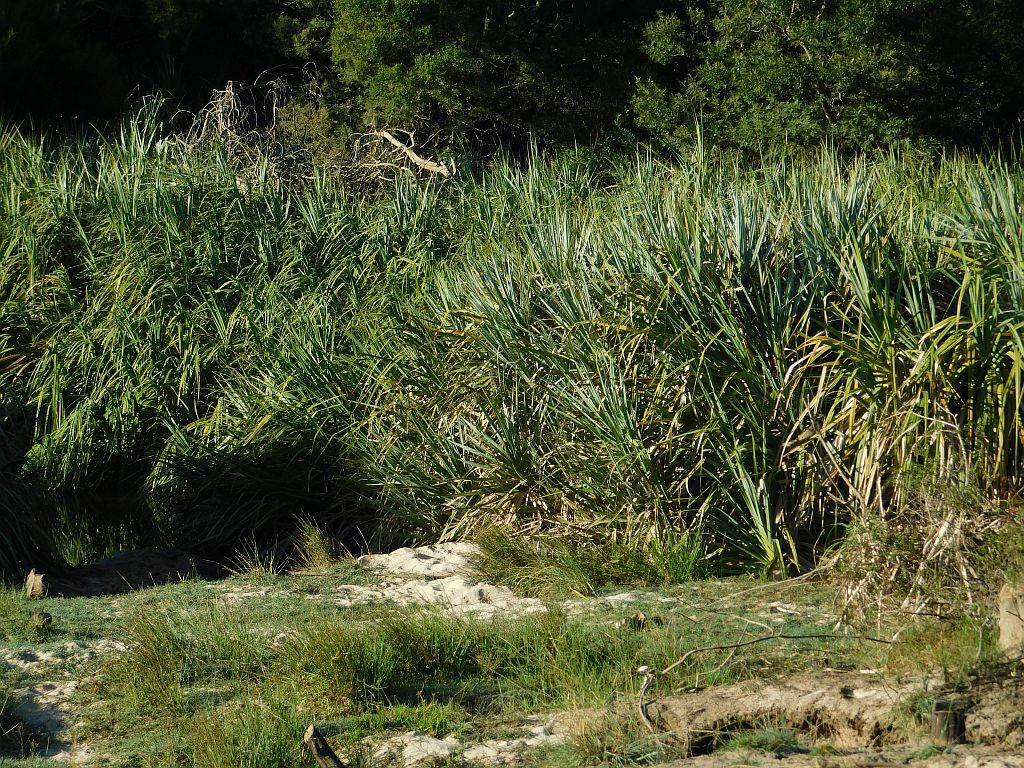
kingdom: Plantae
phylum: Tracheophyta
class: Liliopsida
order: Poales
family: Thurniaceae
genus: Prionium
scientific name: Prionium serratum
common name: Palmiet
